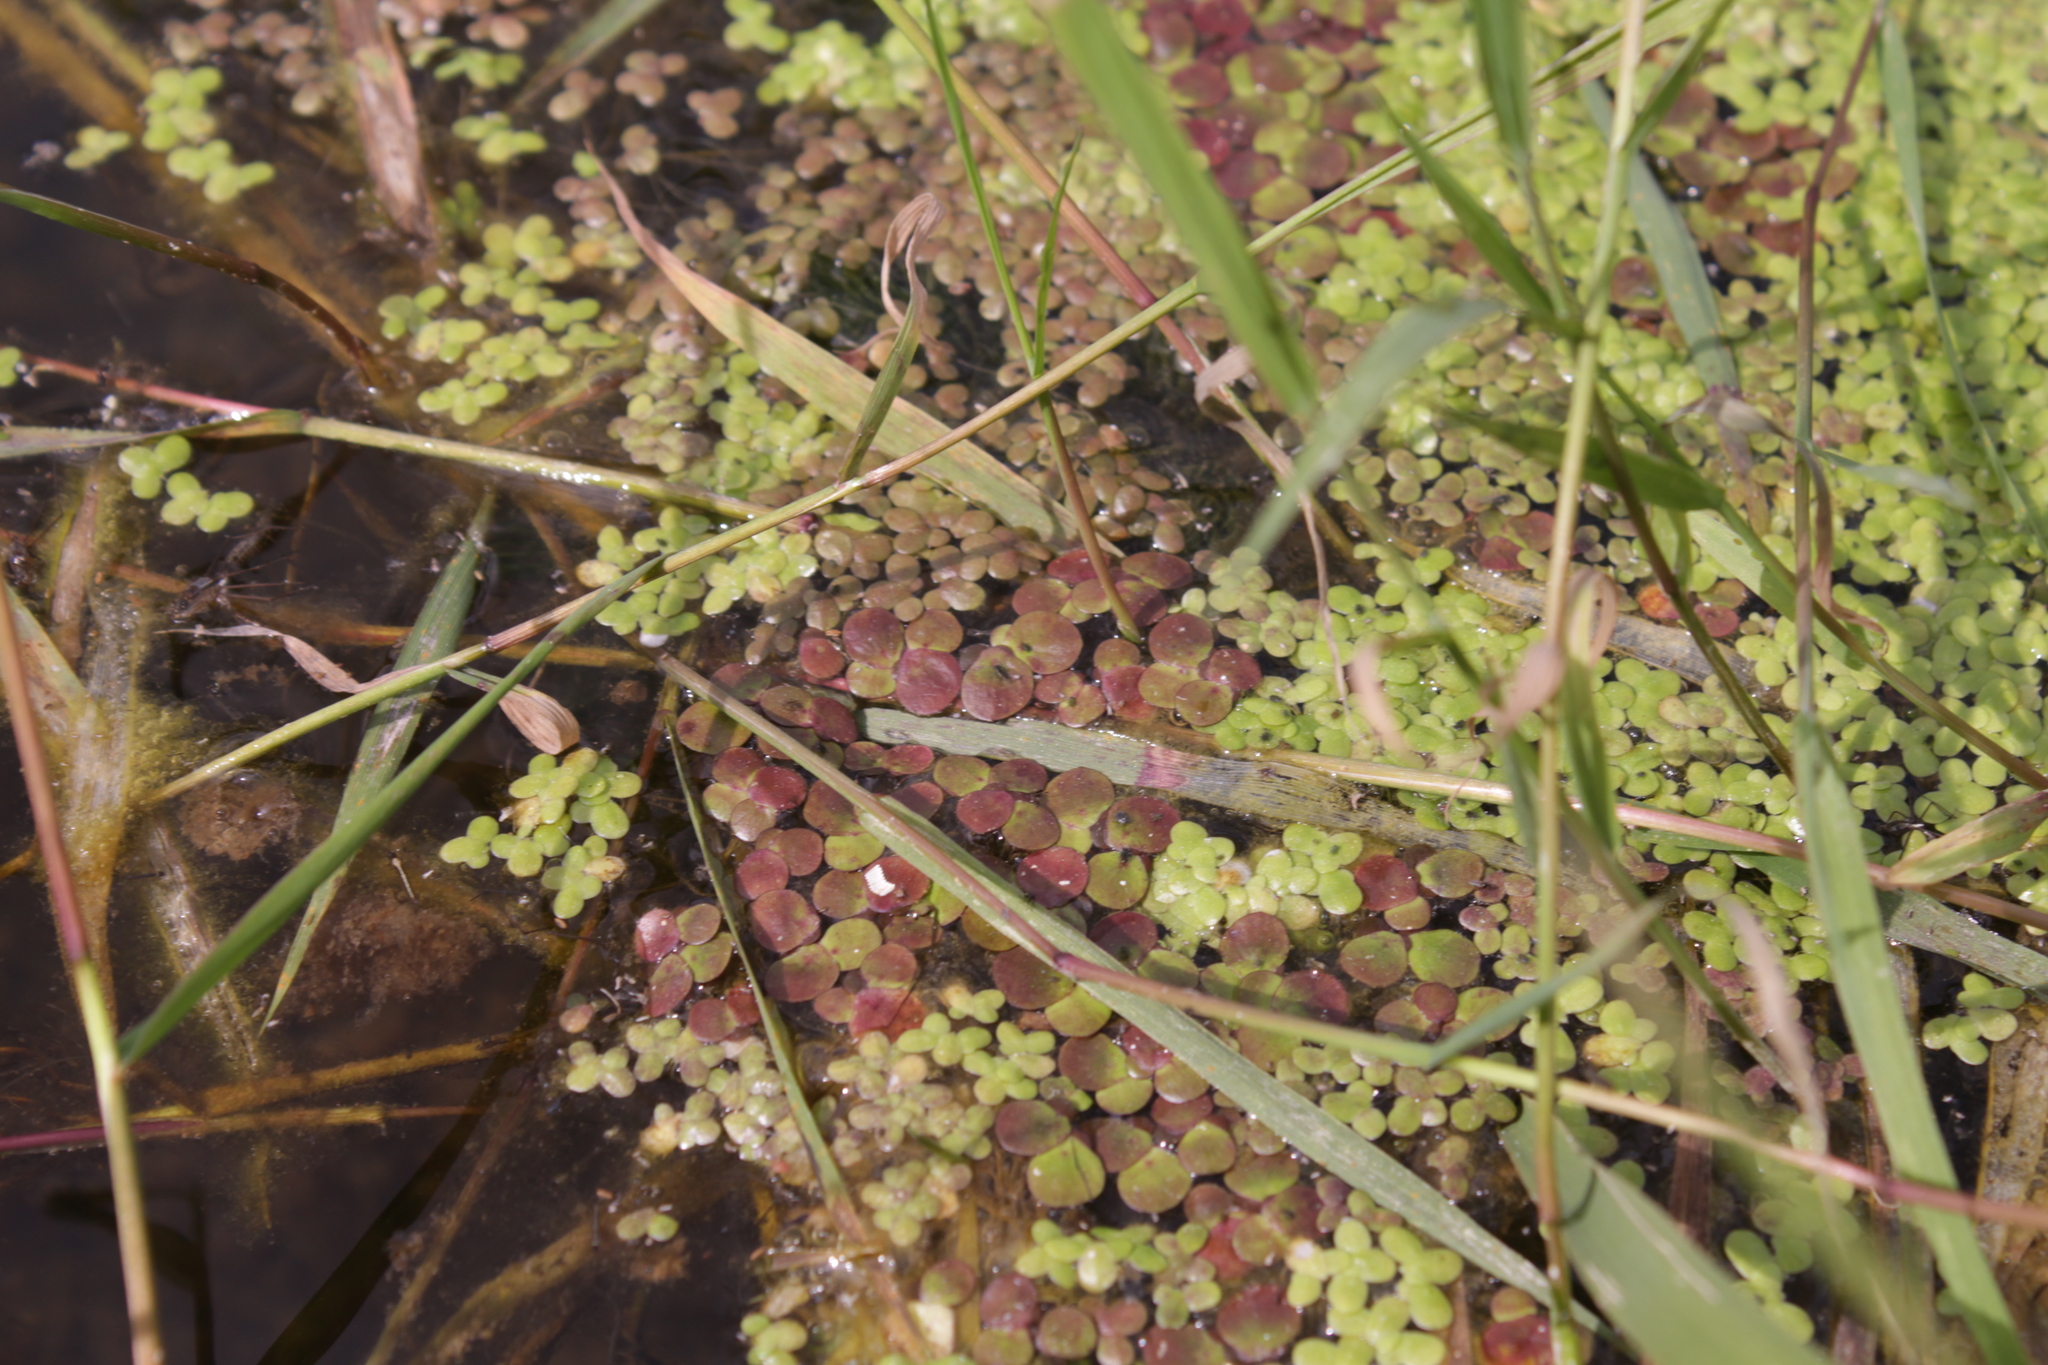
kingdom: Plantae
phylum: Tracheophyta
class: Liliopsida
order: Alismatales
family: Araceae
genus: Spirodela
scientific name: Spirodela polyrhiza
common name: Great duckweed
